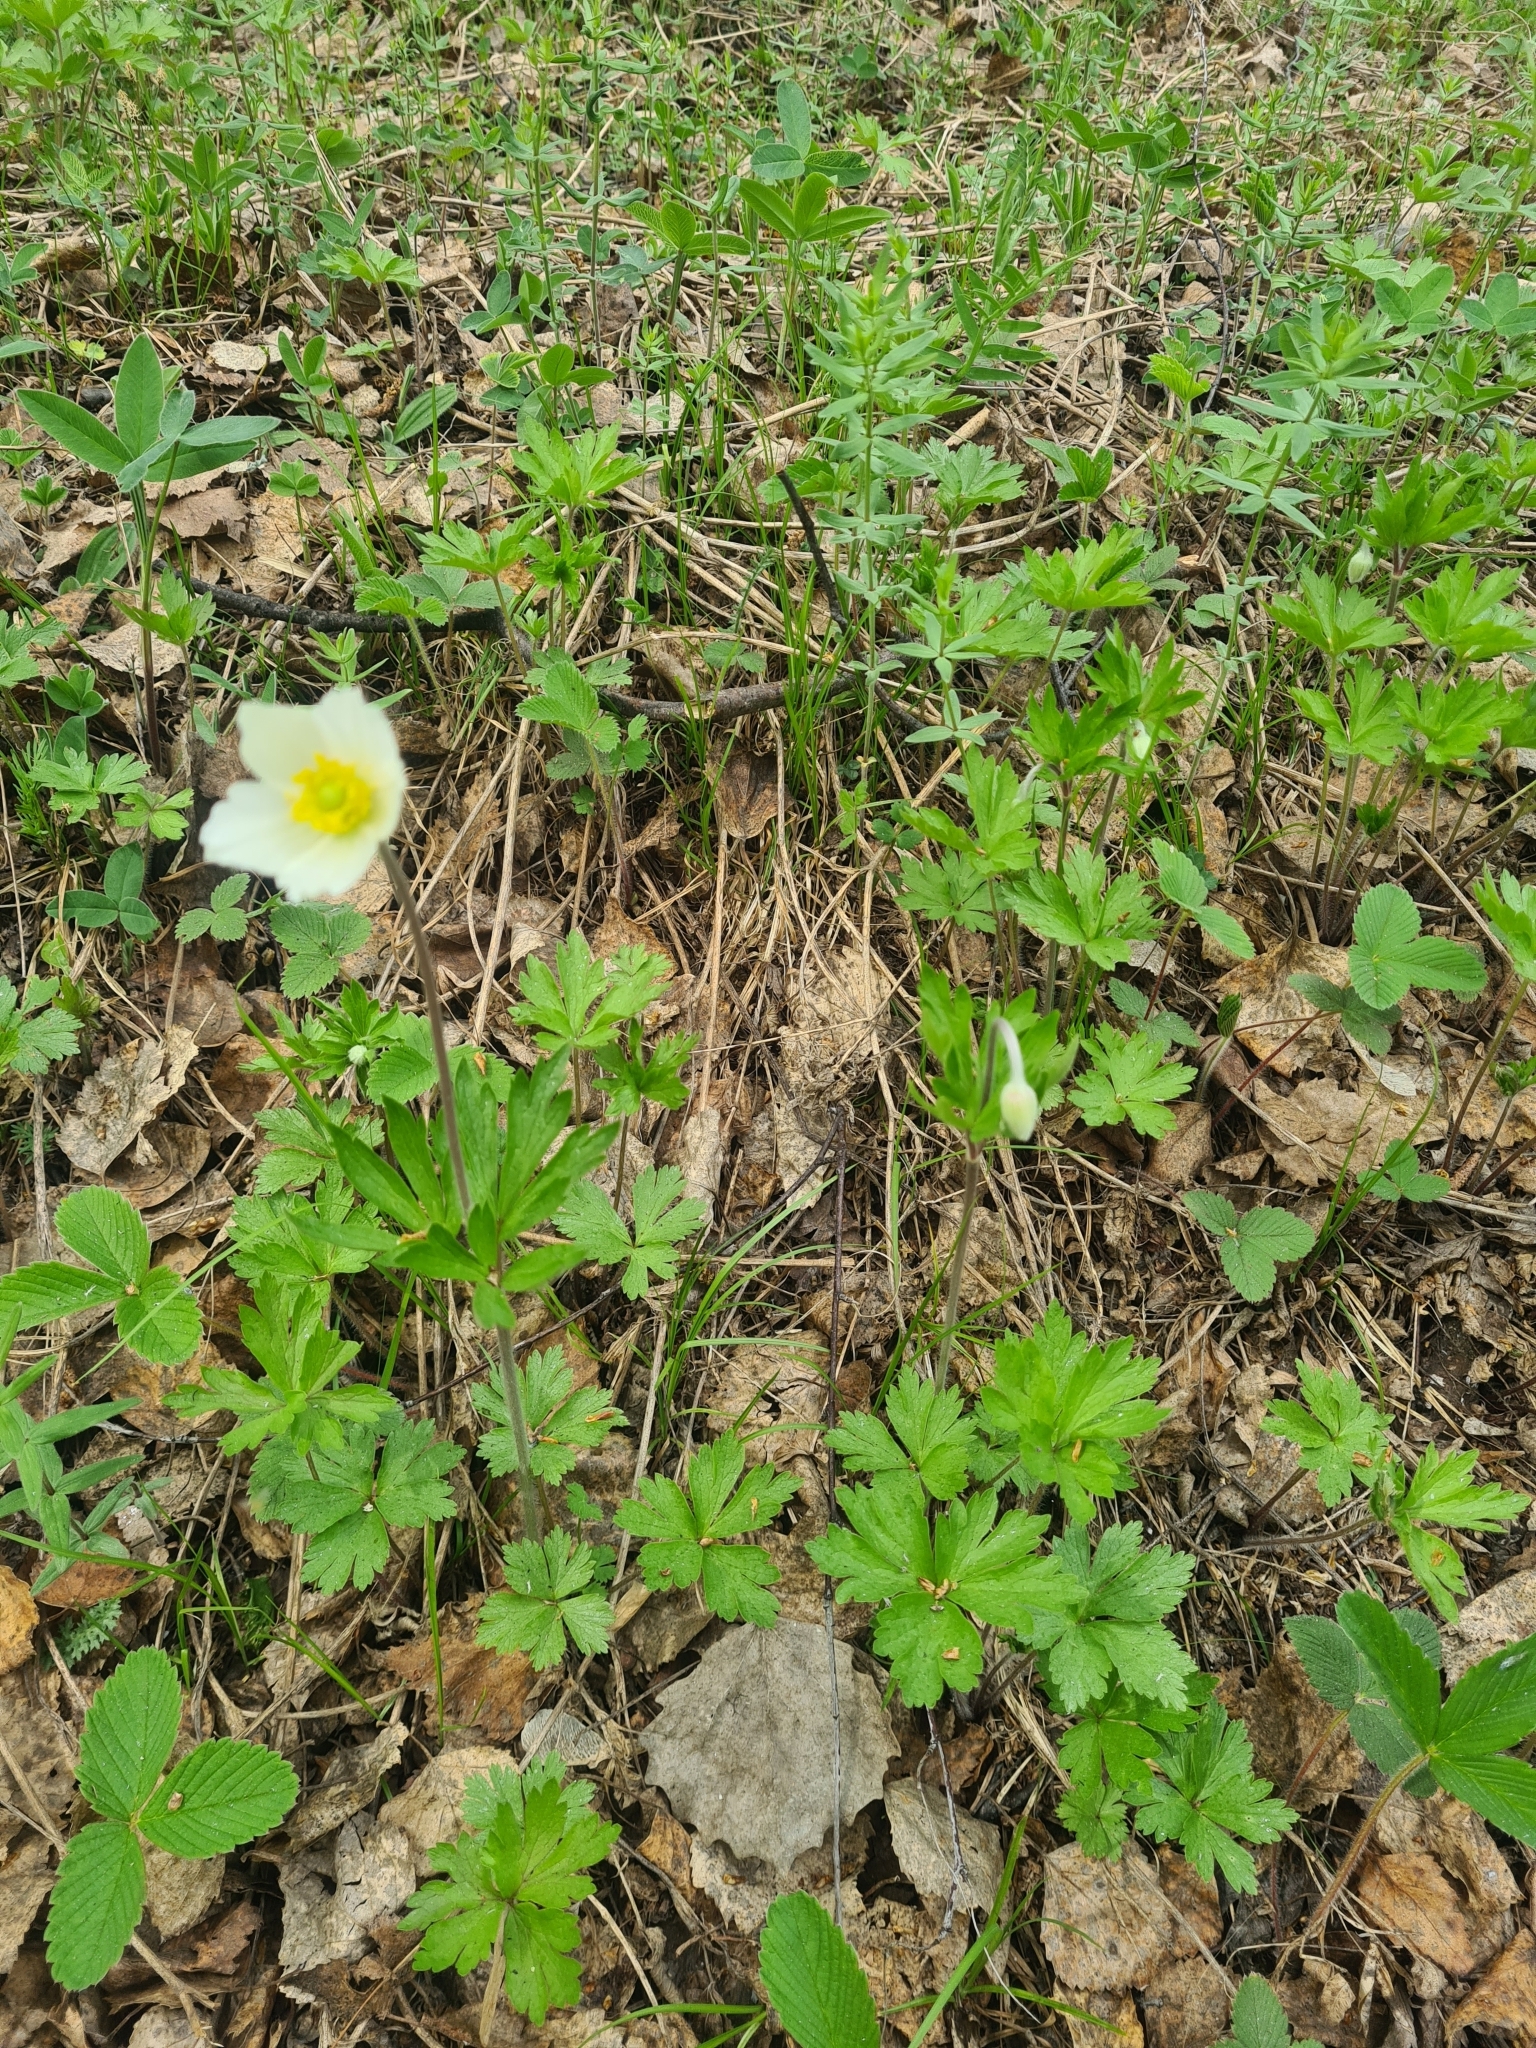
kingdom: Plantae
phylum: Tracheophyta
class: Magnoliopsida
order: Ranunculales
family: Ranunculaceae
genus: Anemone
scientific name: Anemone sylvestris
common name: Snowdrop anemone
